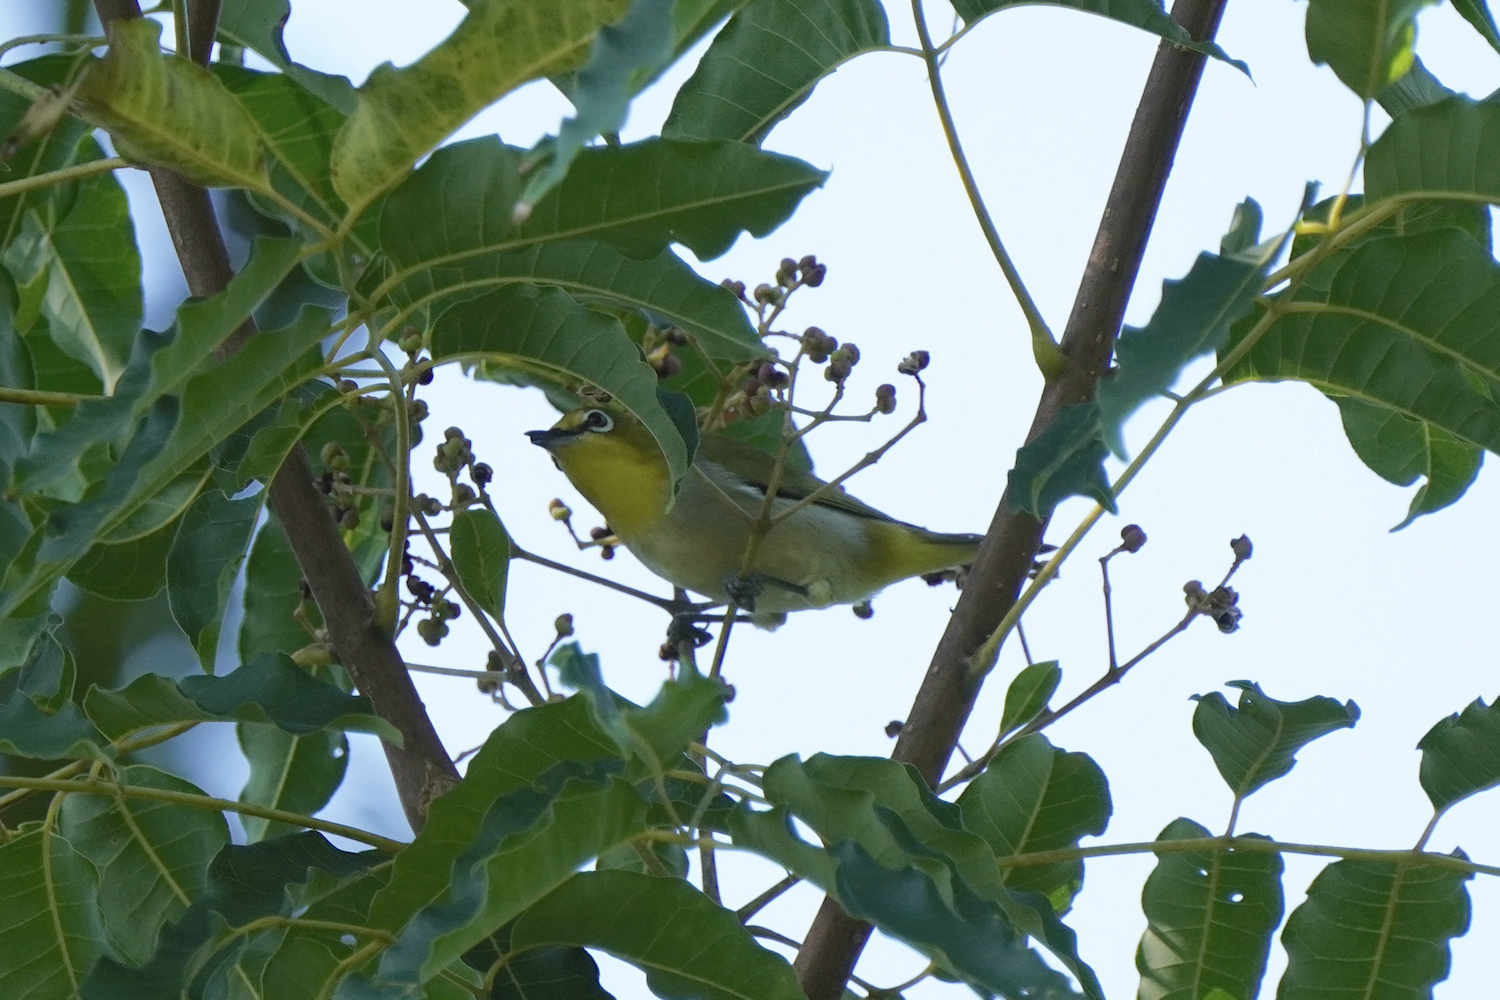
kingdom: Animalia
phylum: Chordata
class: Aves
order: Passeriformes
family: Zosteropidae
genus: Zosterops
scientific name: Zosterops simplex
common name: Swinhoe's white-eye
